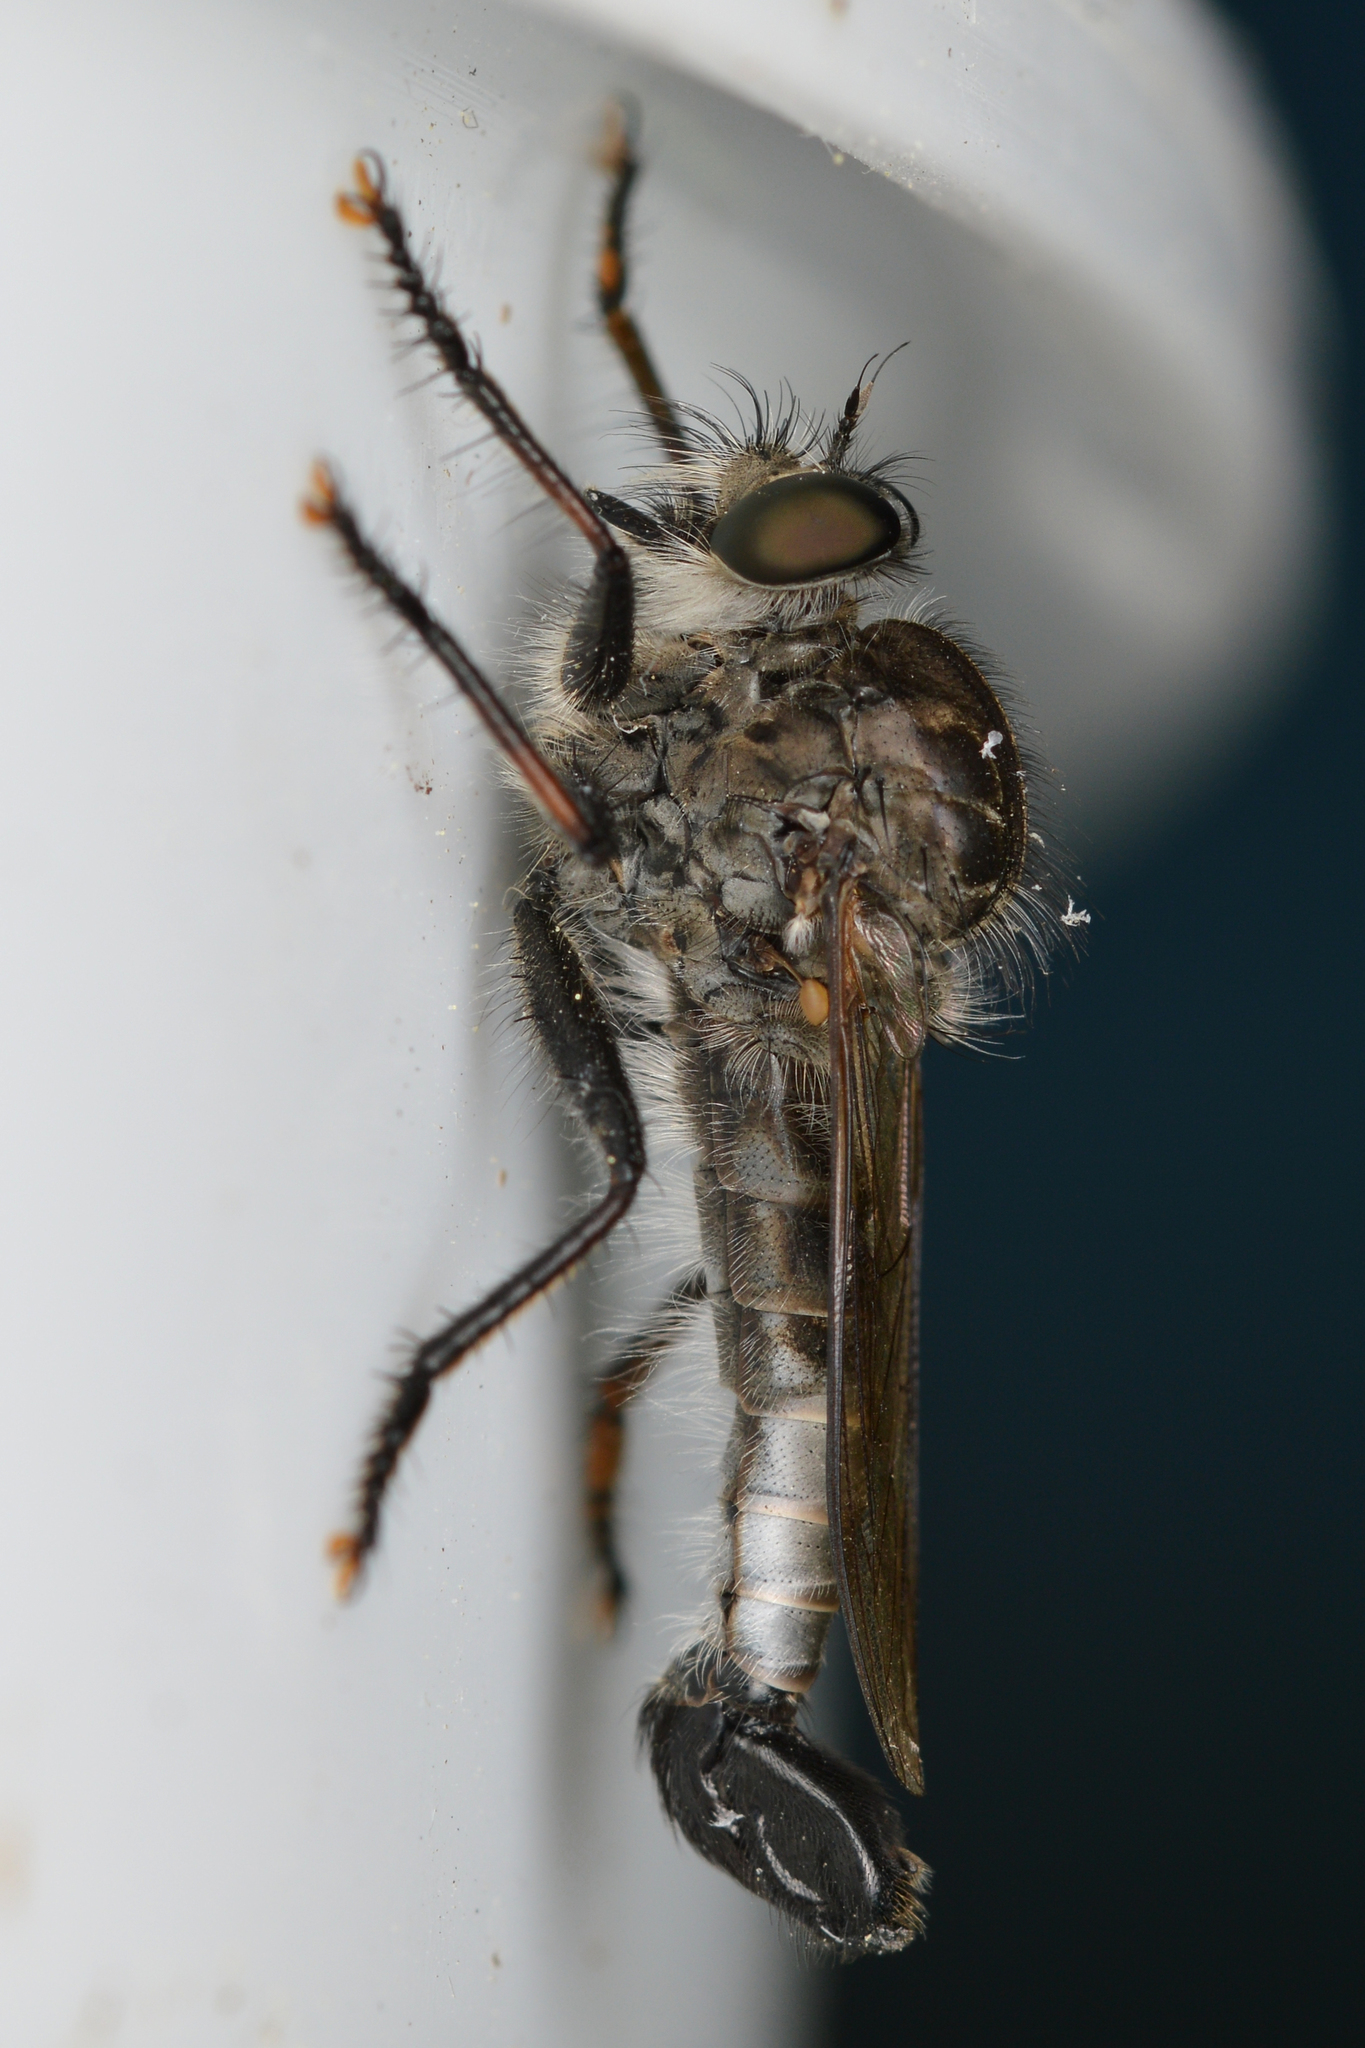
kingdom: Animalia
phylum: Arthropoda
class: Insecta
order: Diptera
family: Asilidae
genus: Efferia
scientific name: Efferia aestuans
